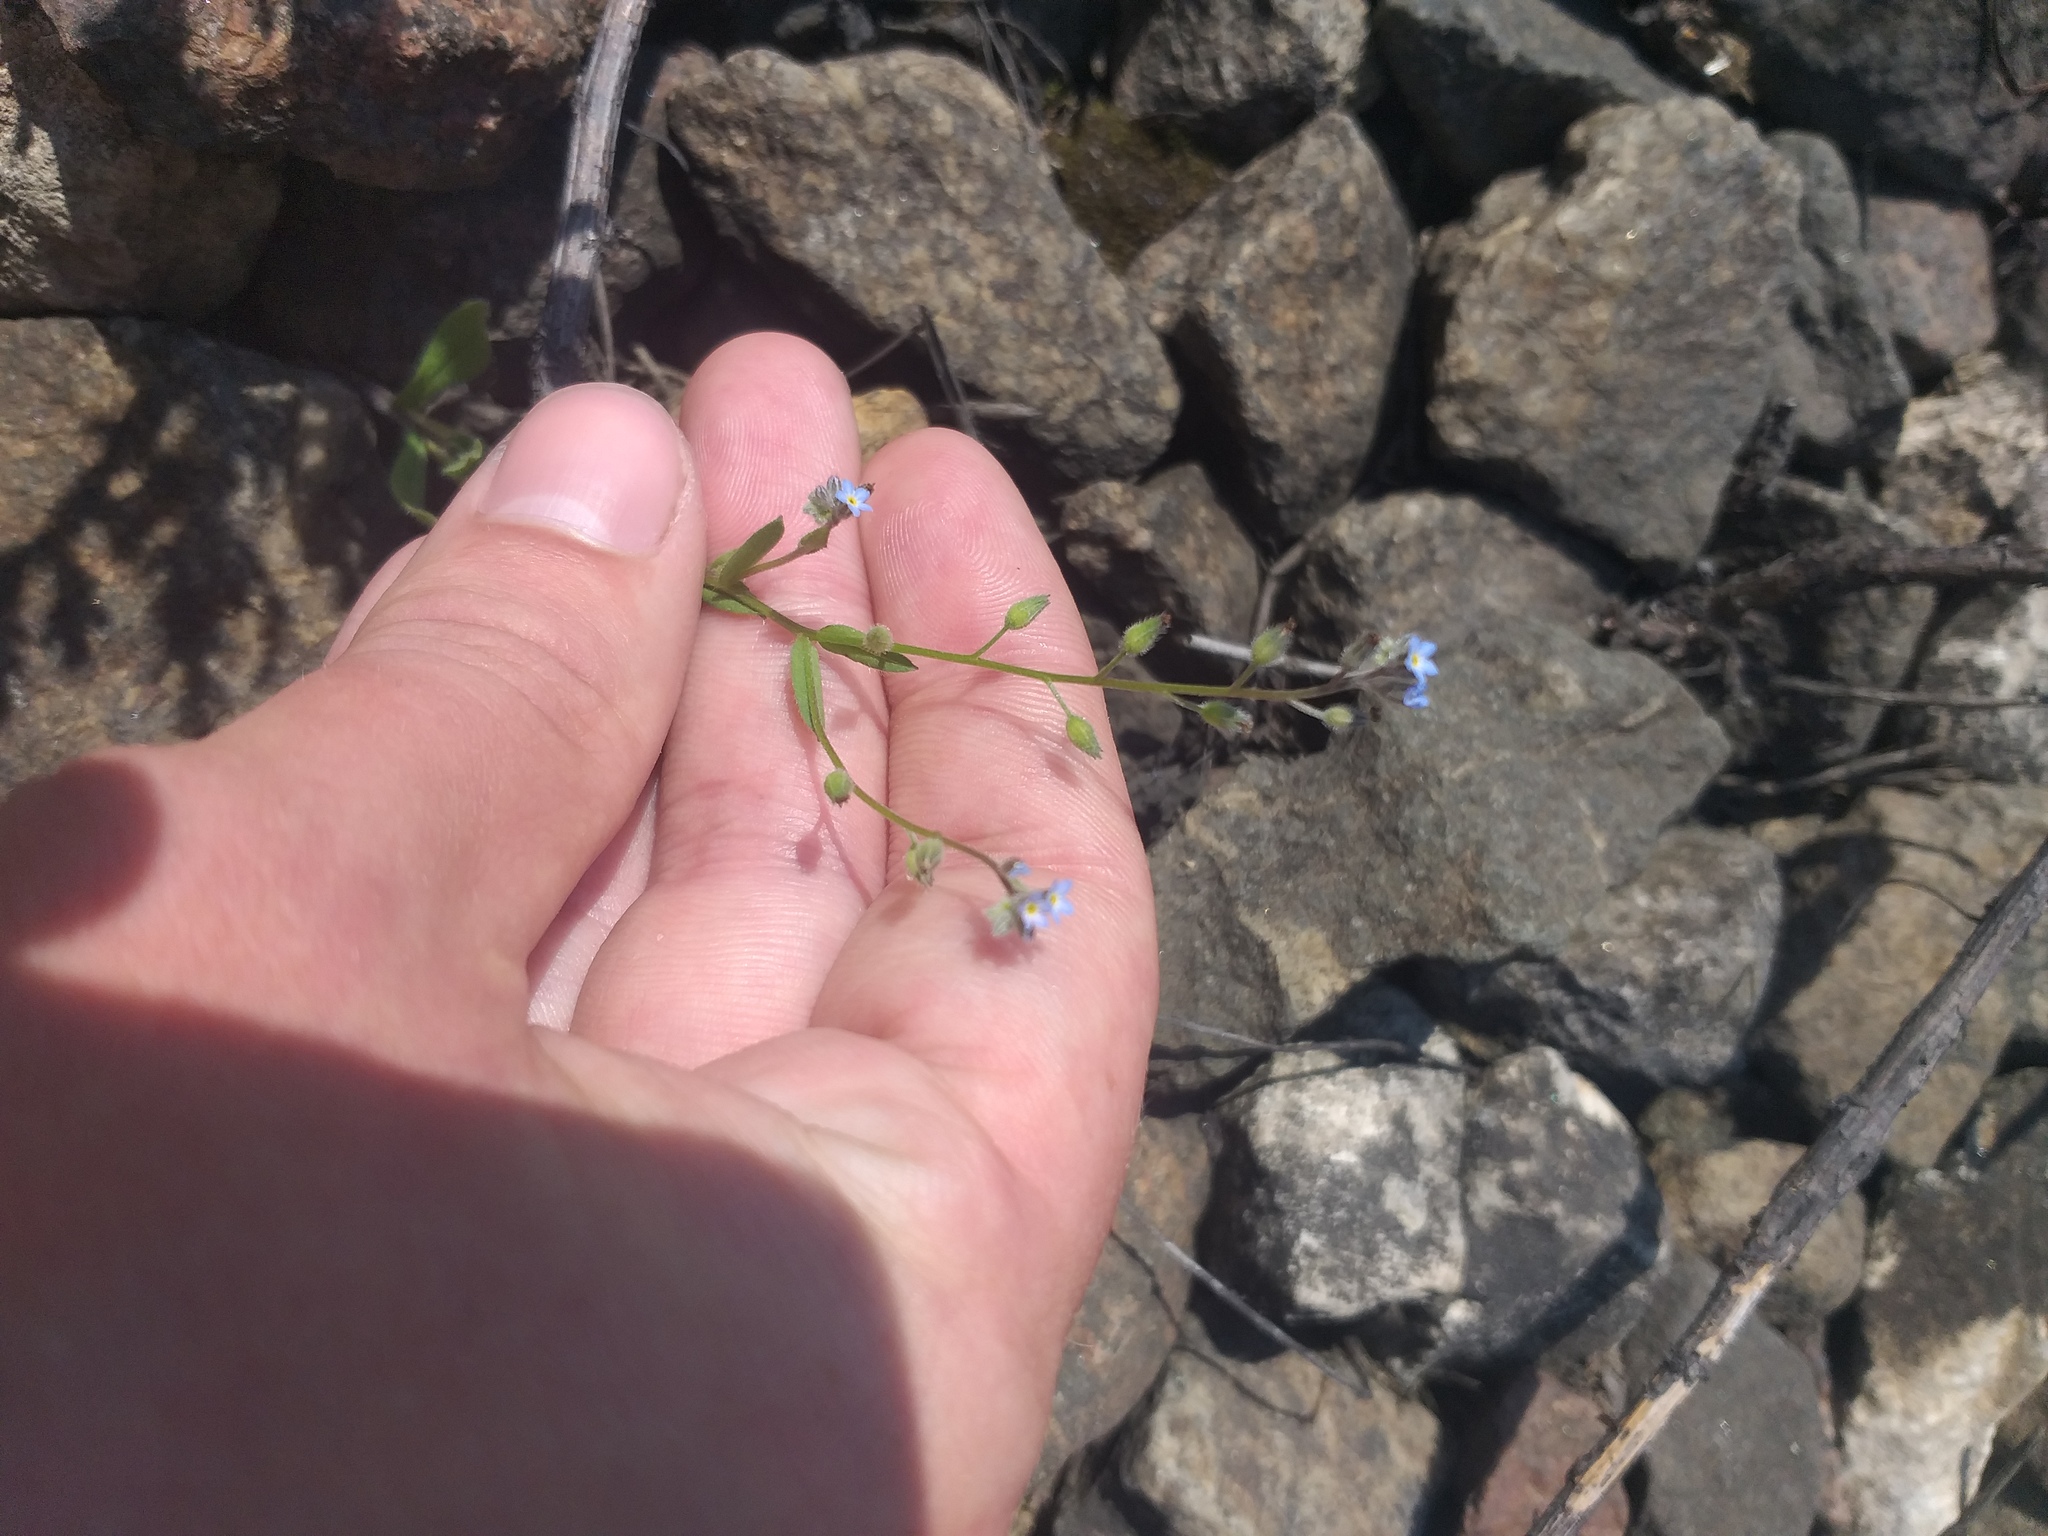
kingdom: Plantae
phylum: Tracheophyta
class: Magnoliopsida
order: Boraginales
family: Boraginaceae
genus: Myosotis
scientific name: Myosotis arvensis
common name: Field forget-me-not
